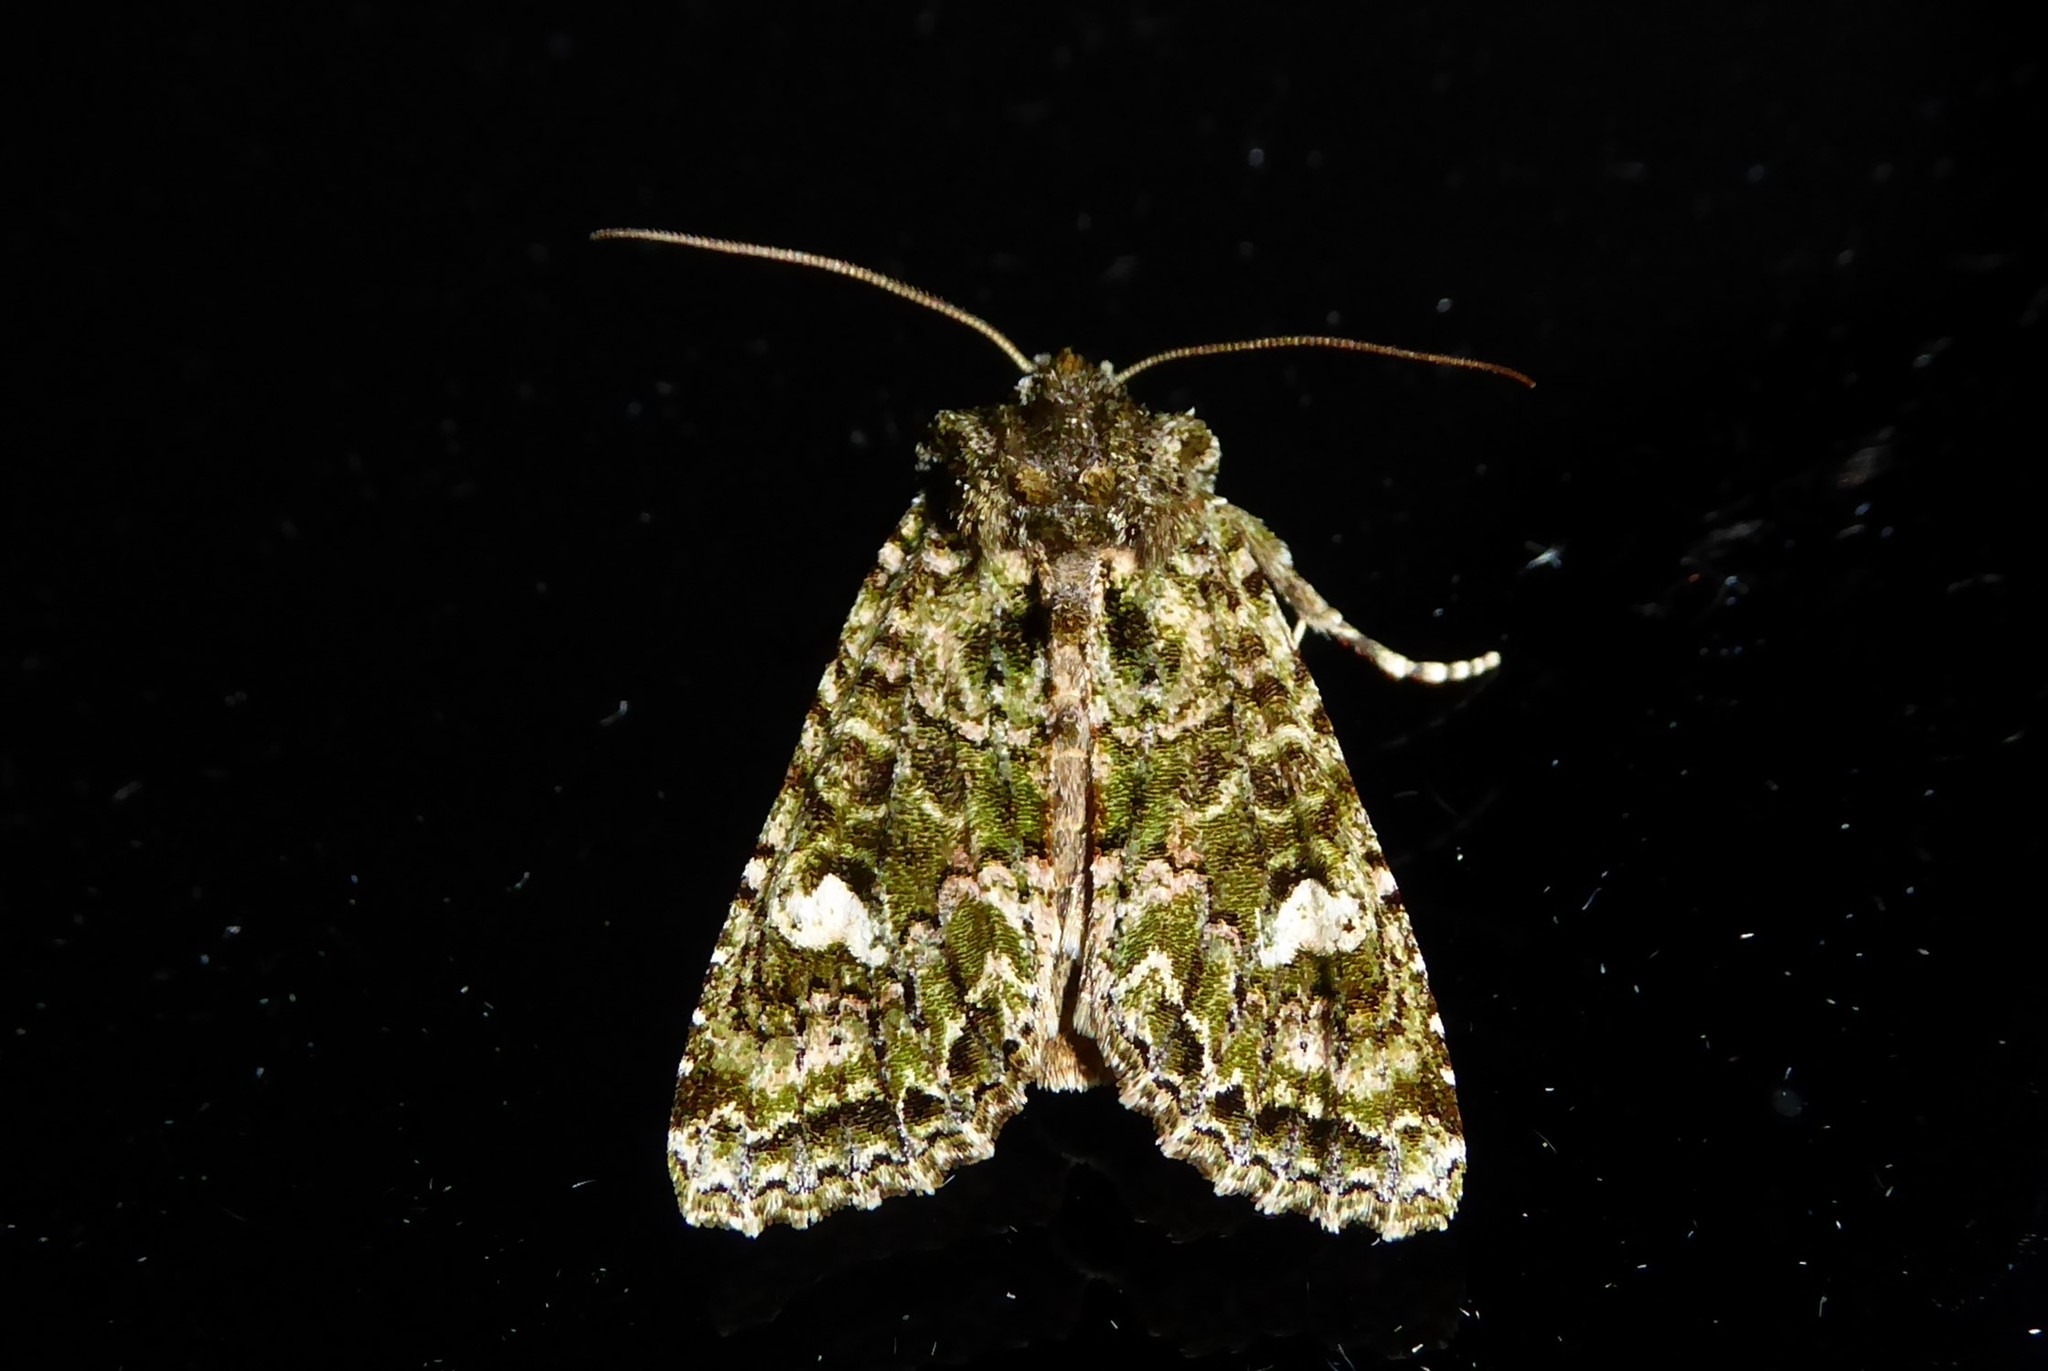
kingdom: Animalia
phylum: Arthropoda
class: Insecta
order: Lepidoptera
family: Noctuidae
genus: Ichneutica
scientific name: Ichneutica
